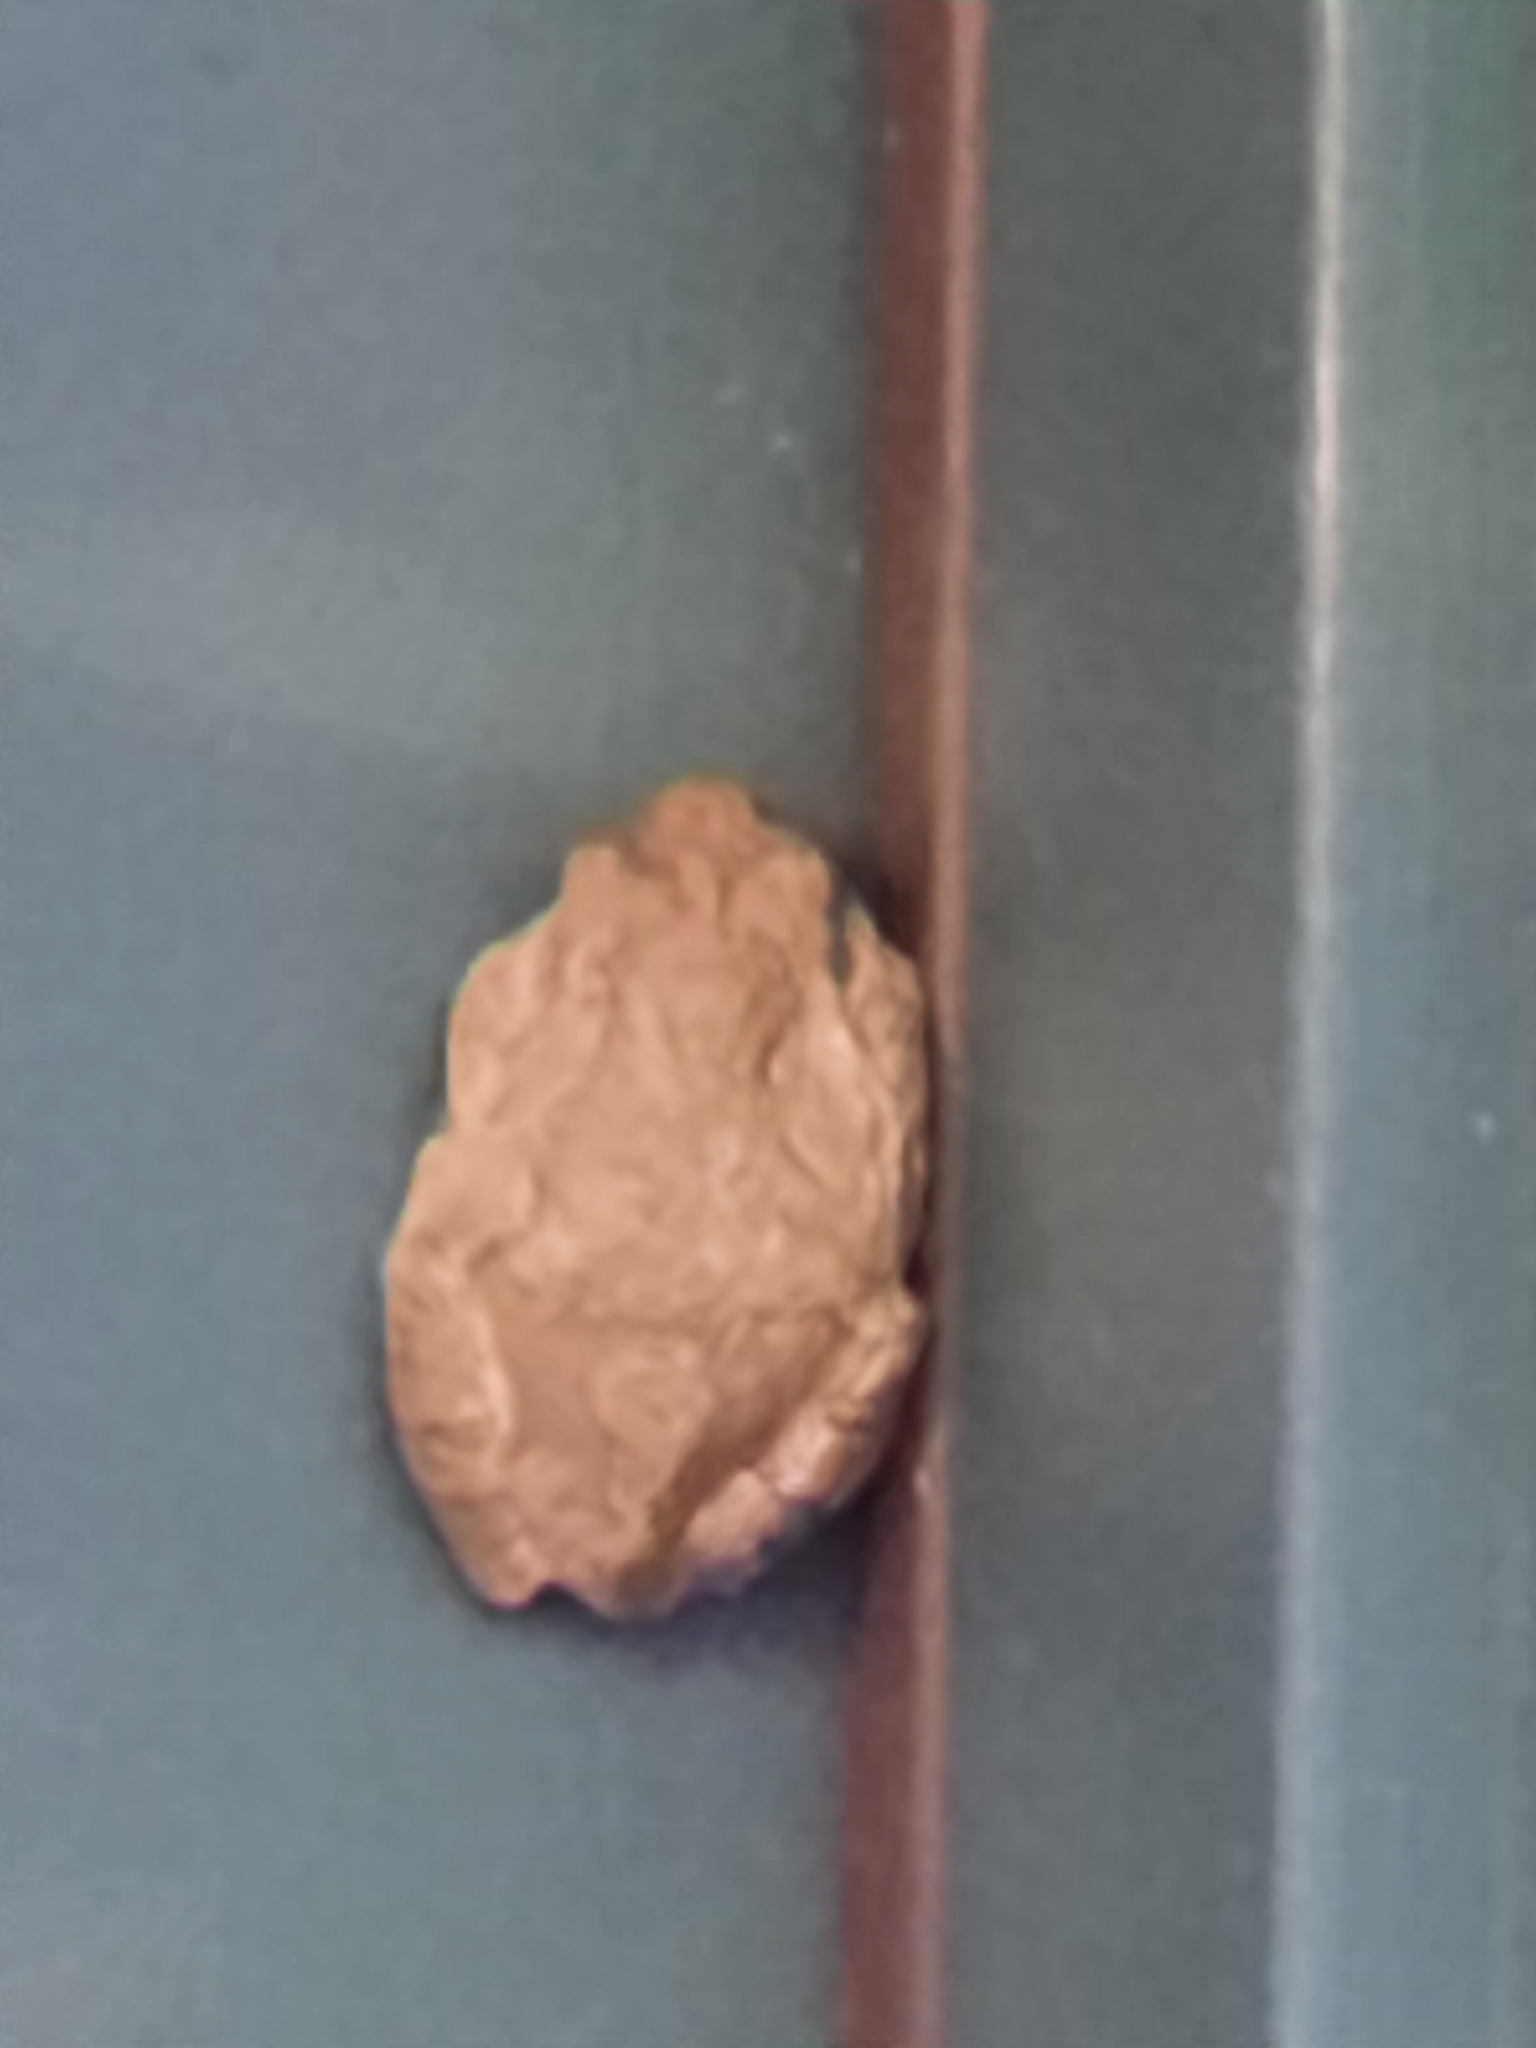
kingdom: Animalia
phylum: Chordata
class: Amphibia
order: Anura
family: Hylidae
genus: Dryophytes
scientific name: Dryophytes versicolor
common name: Gray treefrog
